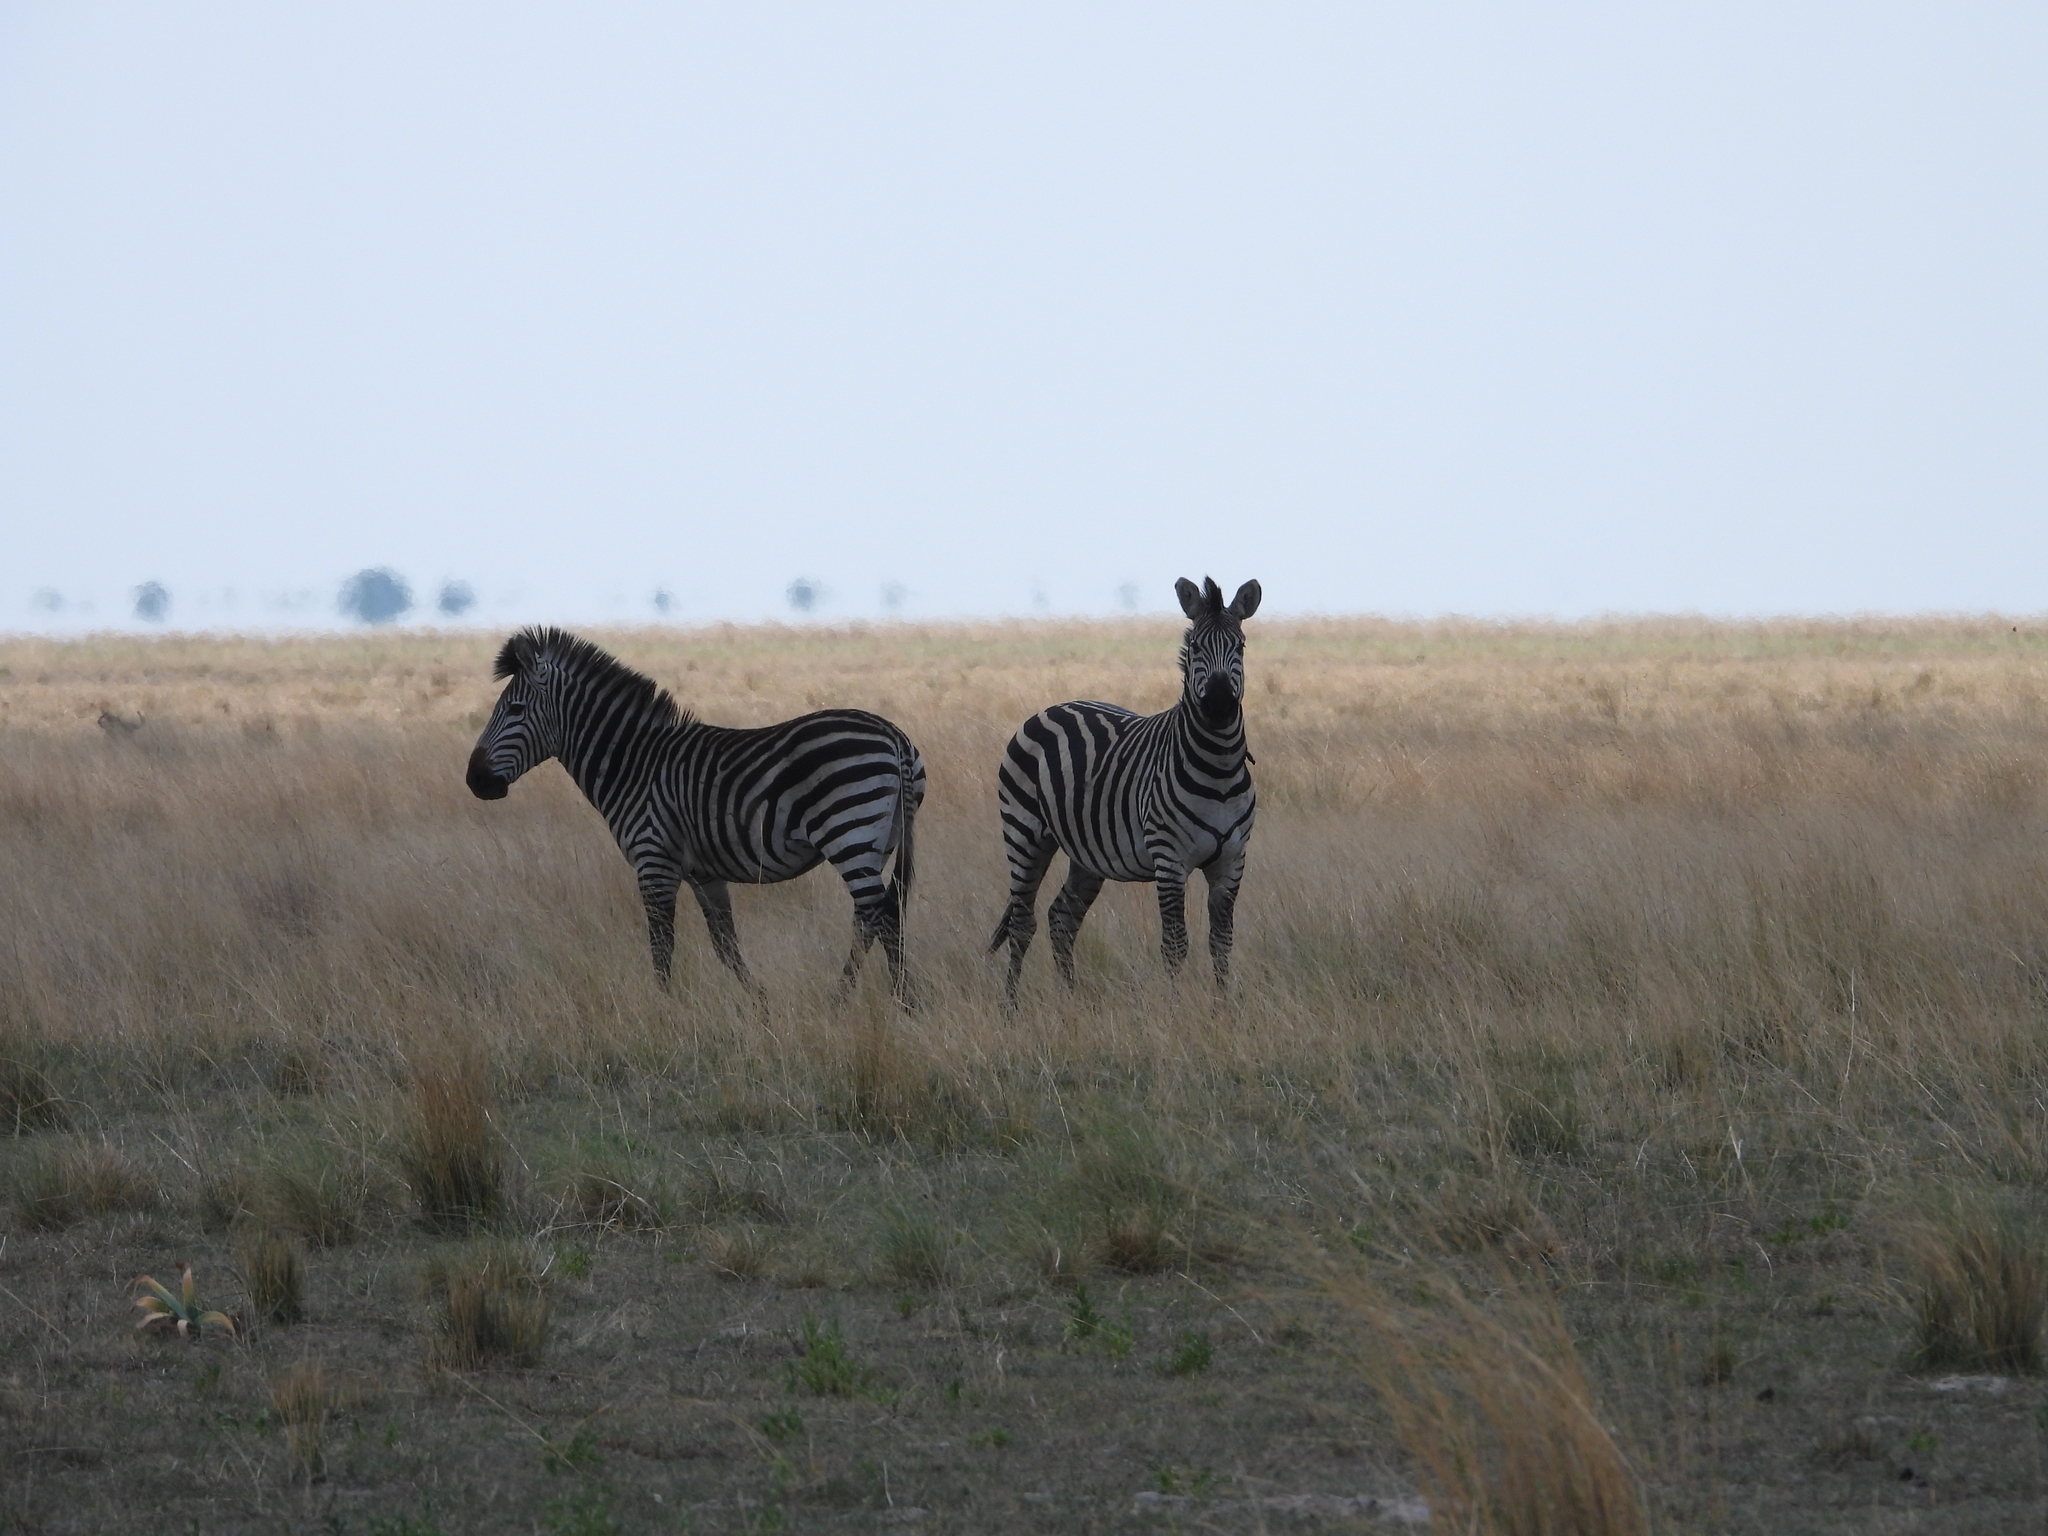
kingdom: Animalia
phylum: Chordata
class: Mammalia
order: Perissodactyla
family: Equidae
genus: Equus
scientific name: Equus quagga
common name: Plains zebra
